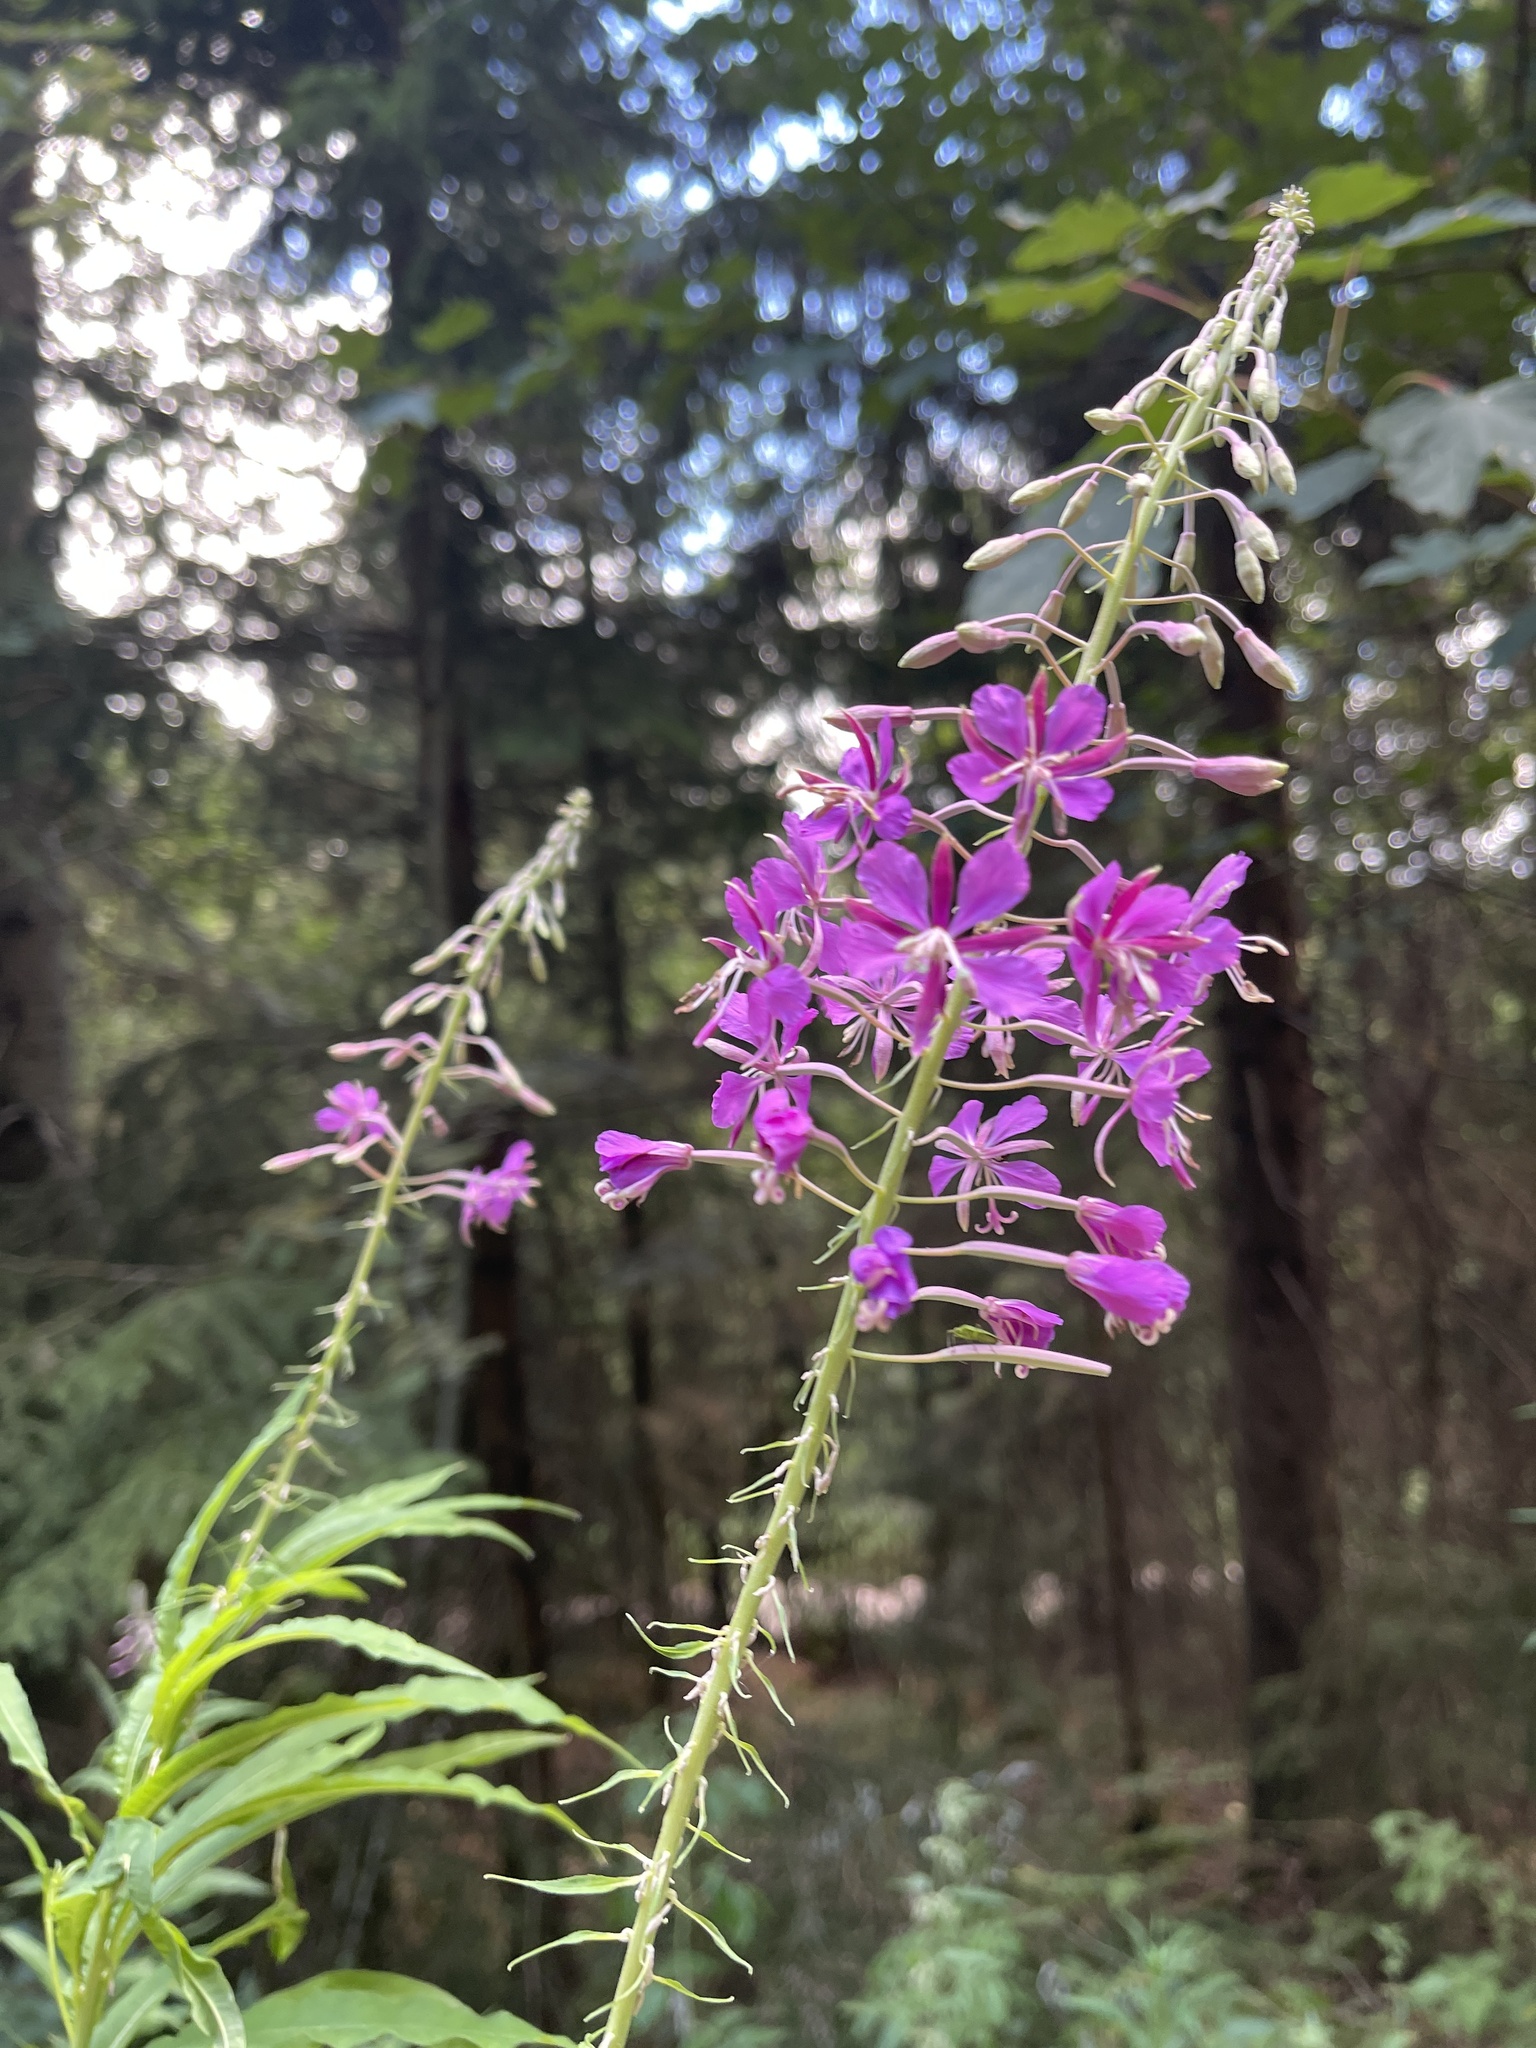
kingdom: Plantae
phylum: Tracheophyta
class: Magnoliopsida
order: Myrtales
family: Onagraceae
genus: Chamaenerion
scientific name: Chamaenerion angustifolium
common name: Fireweed
